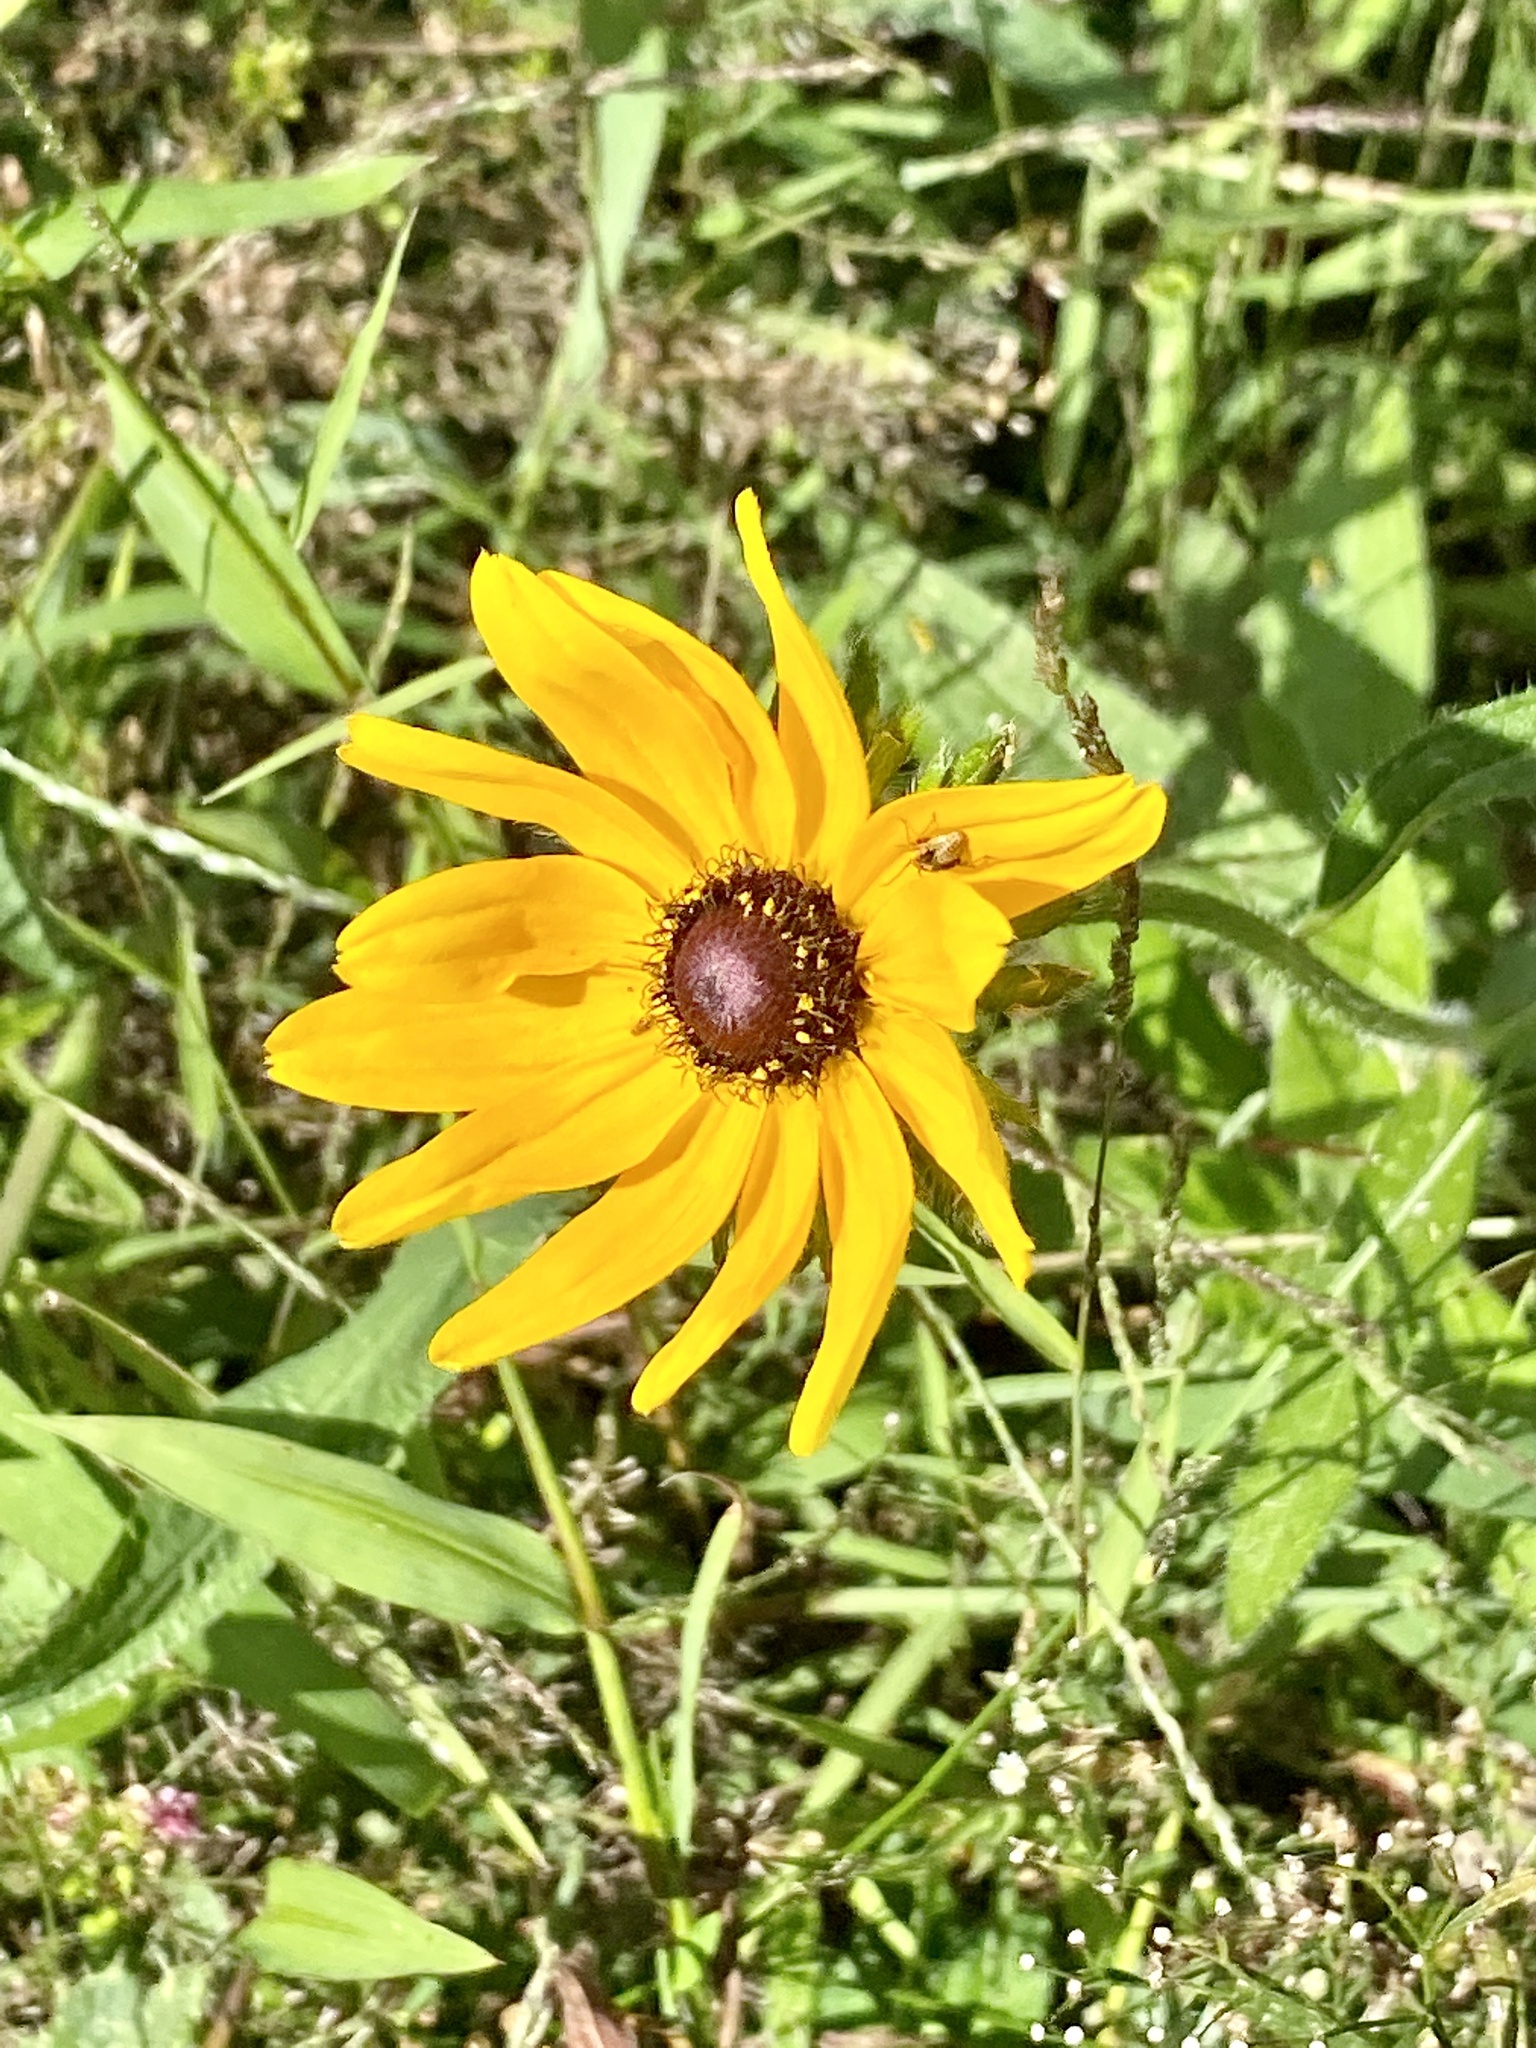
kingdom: Plantae
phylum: Tracheophyta
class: Magnoliopsida
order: Asterales
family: Asteraceae
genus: Rudbeckia
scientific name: Rudbeckia hirta
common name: Black-eyed-susan
